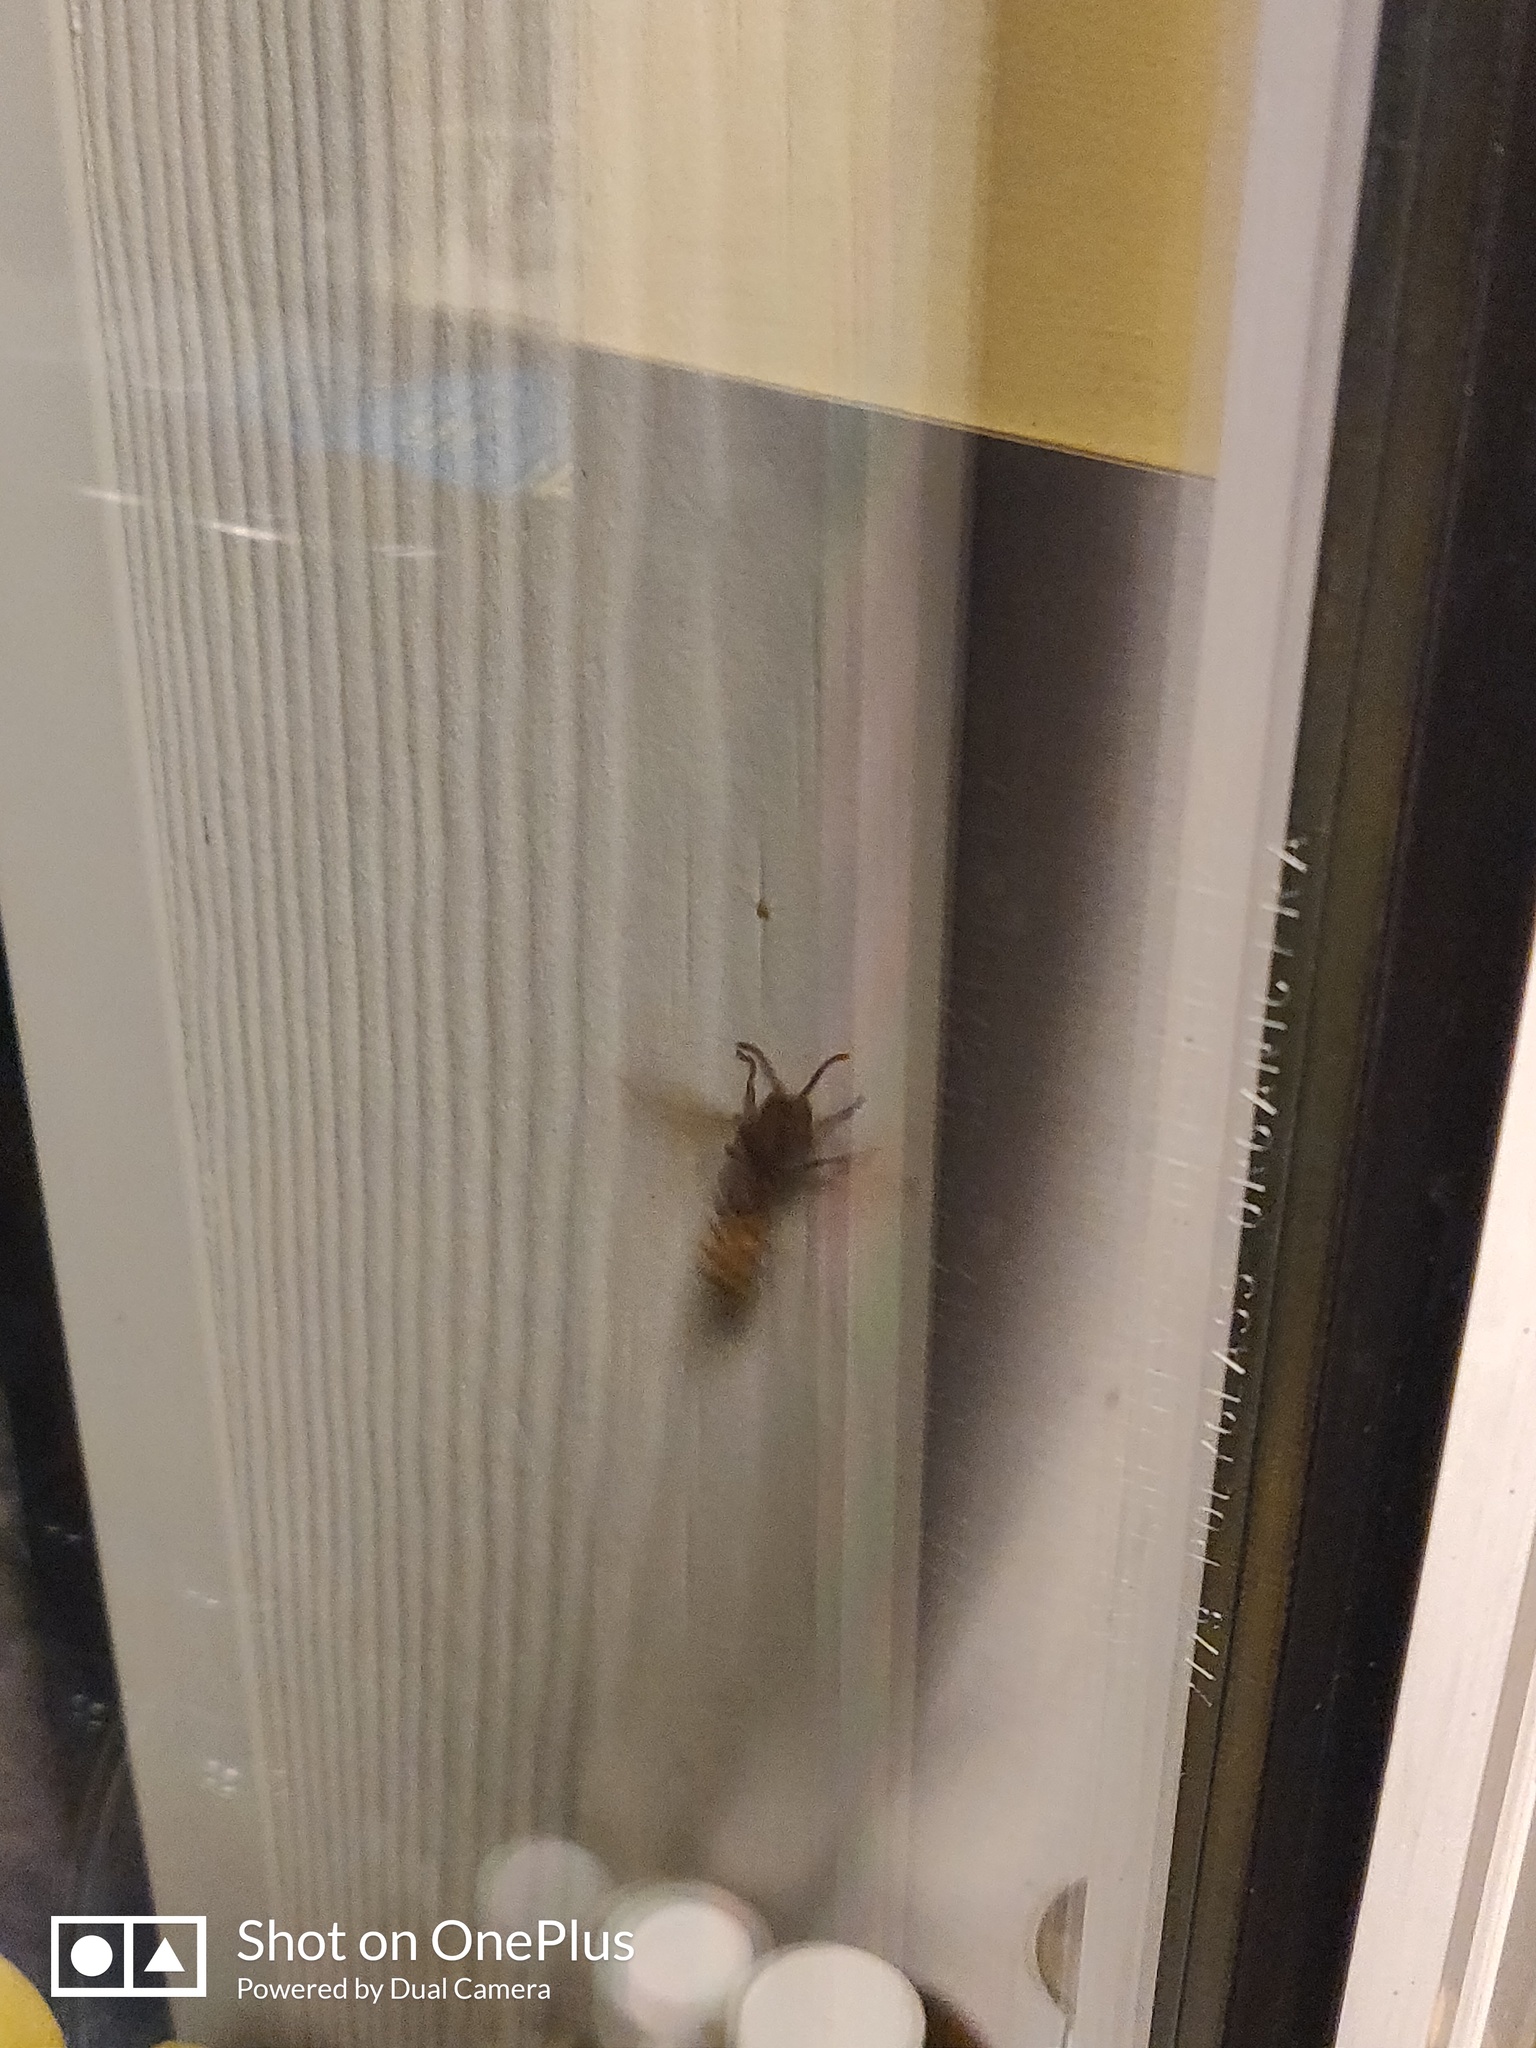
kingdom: Animalia
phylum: Arthropoda
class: Insecta
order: Hymenoptera
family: Vespidae
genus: Vespa
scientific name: Vespa crabro
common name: Hornet
